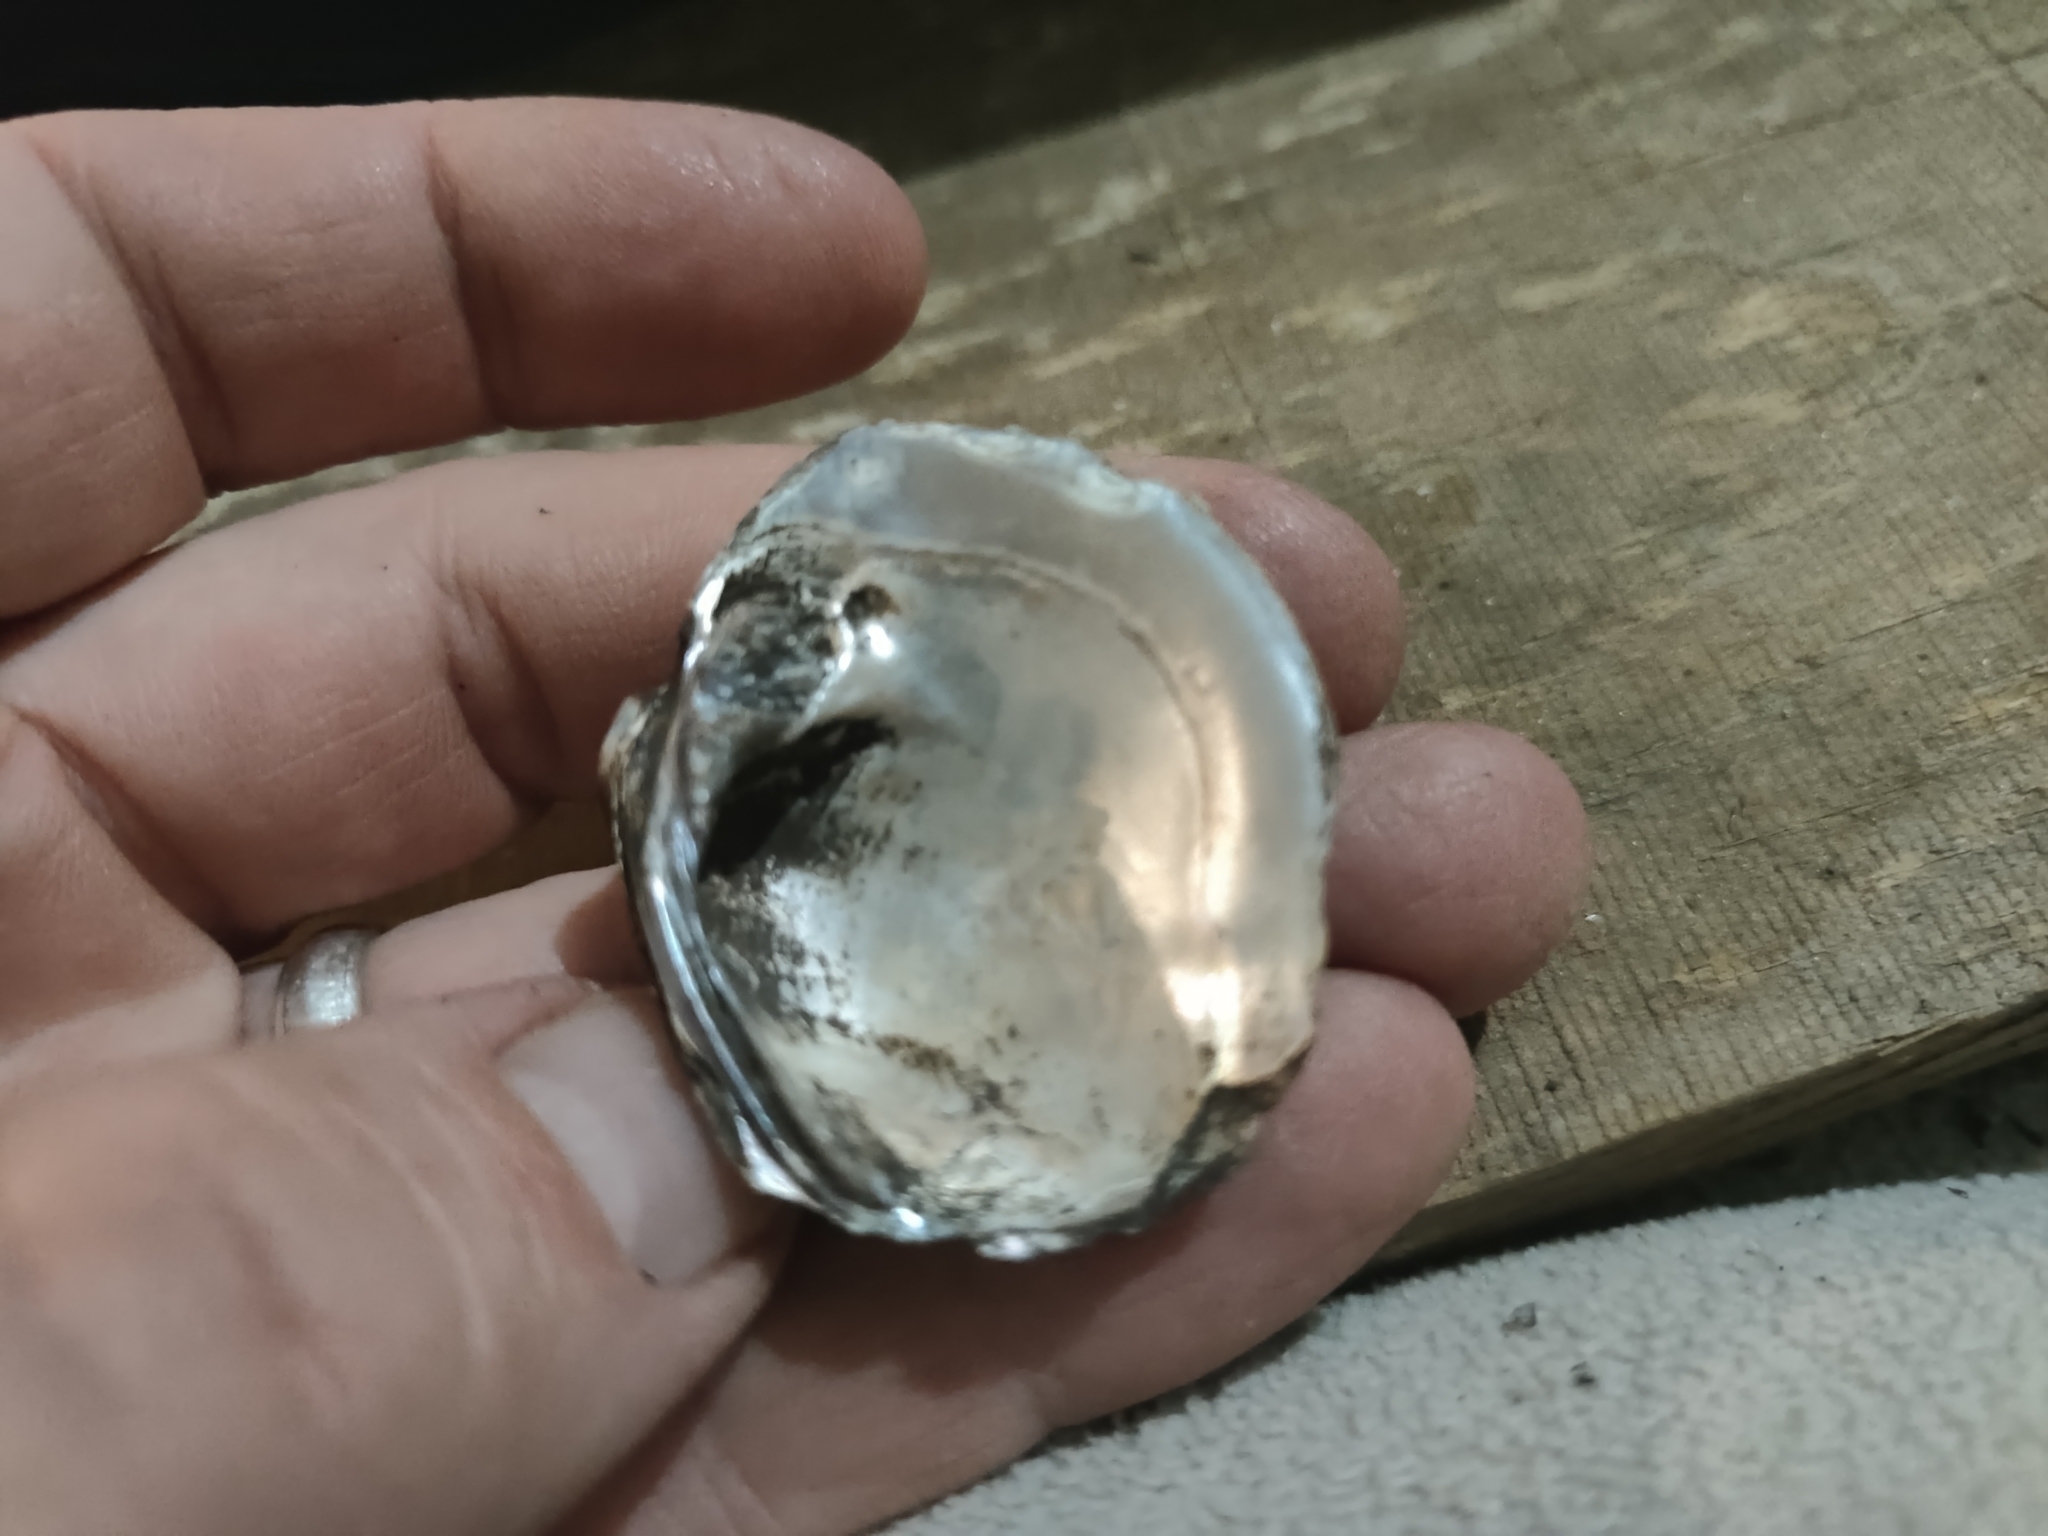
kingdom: Animalia
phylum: Mollusca
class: Bivalvia
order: Unionida
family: Unionidae
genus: Quadrula
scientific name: Quadrula quadrula
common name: Mapleleaf
